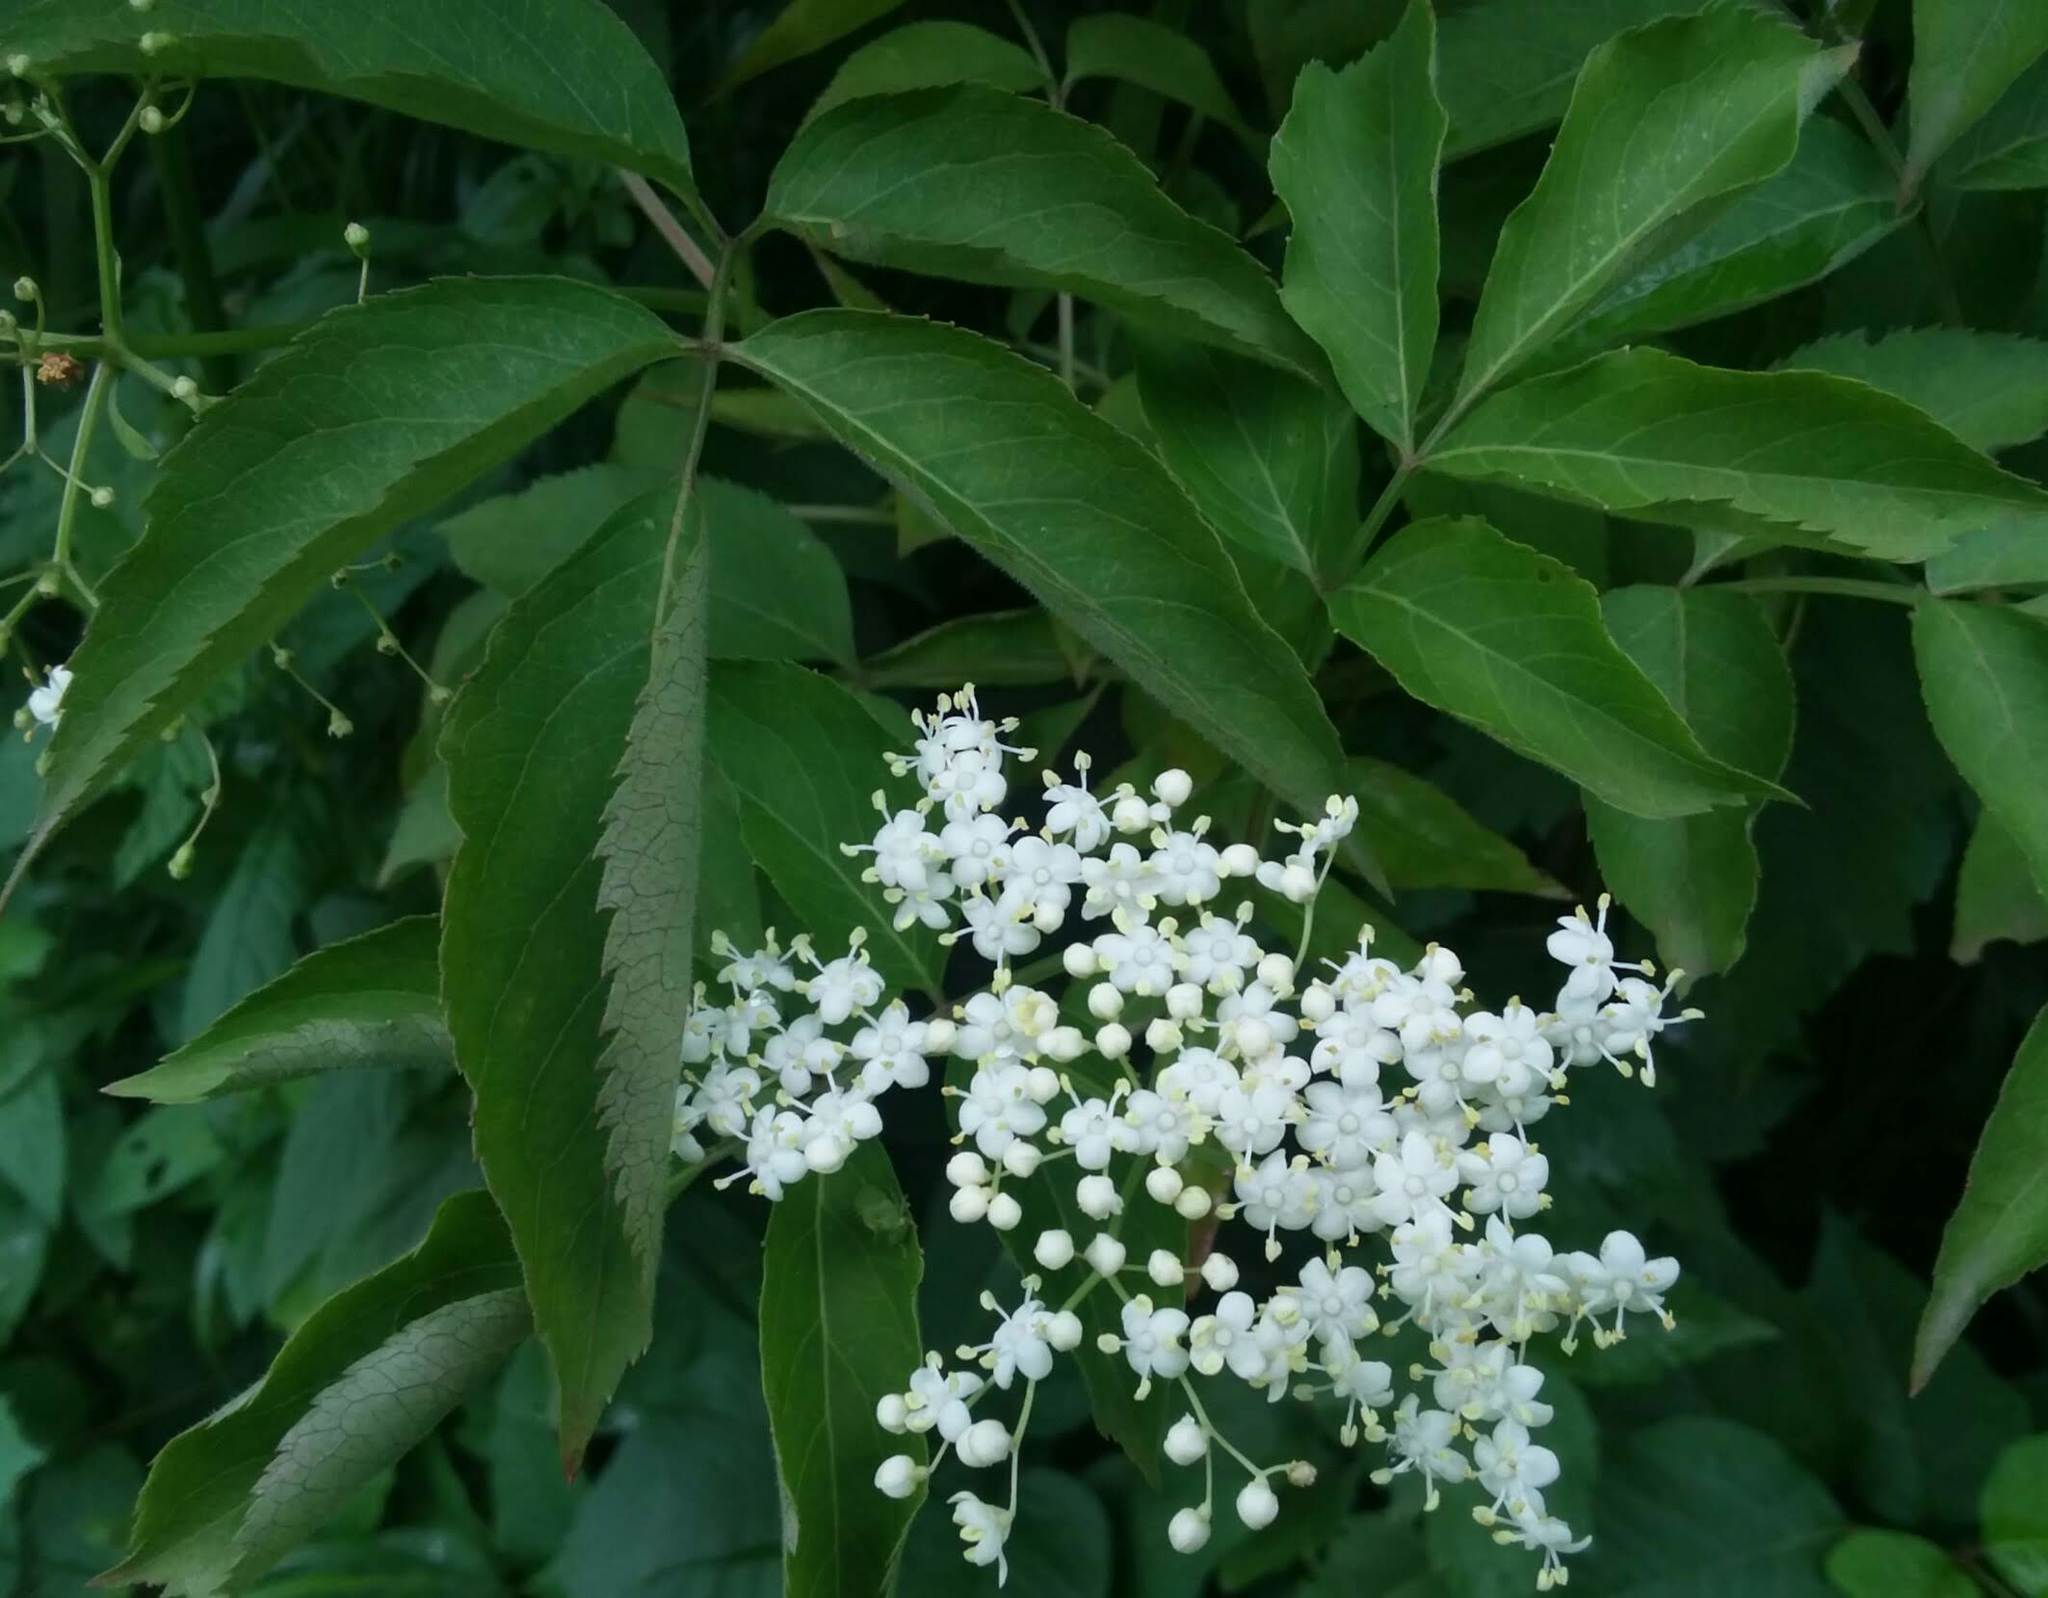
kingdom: Plantae
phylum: Tracheophyta
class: Magnoliopsida
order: Dipsacales
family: Viburnaceae
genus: Sambucus
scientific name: Sambucus canadensis
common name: American elder
